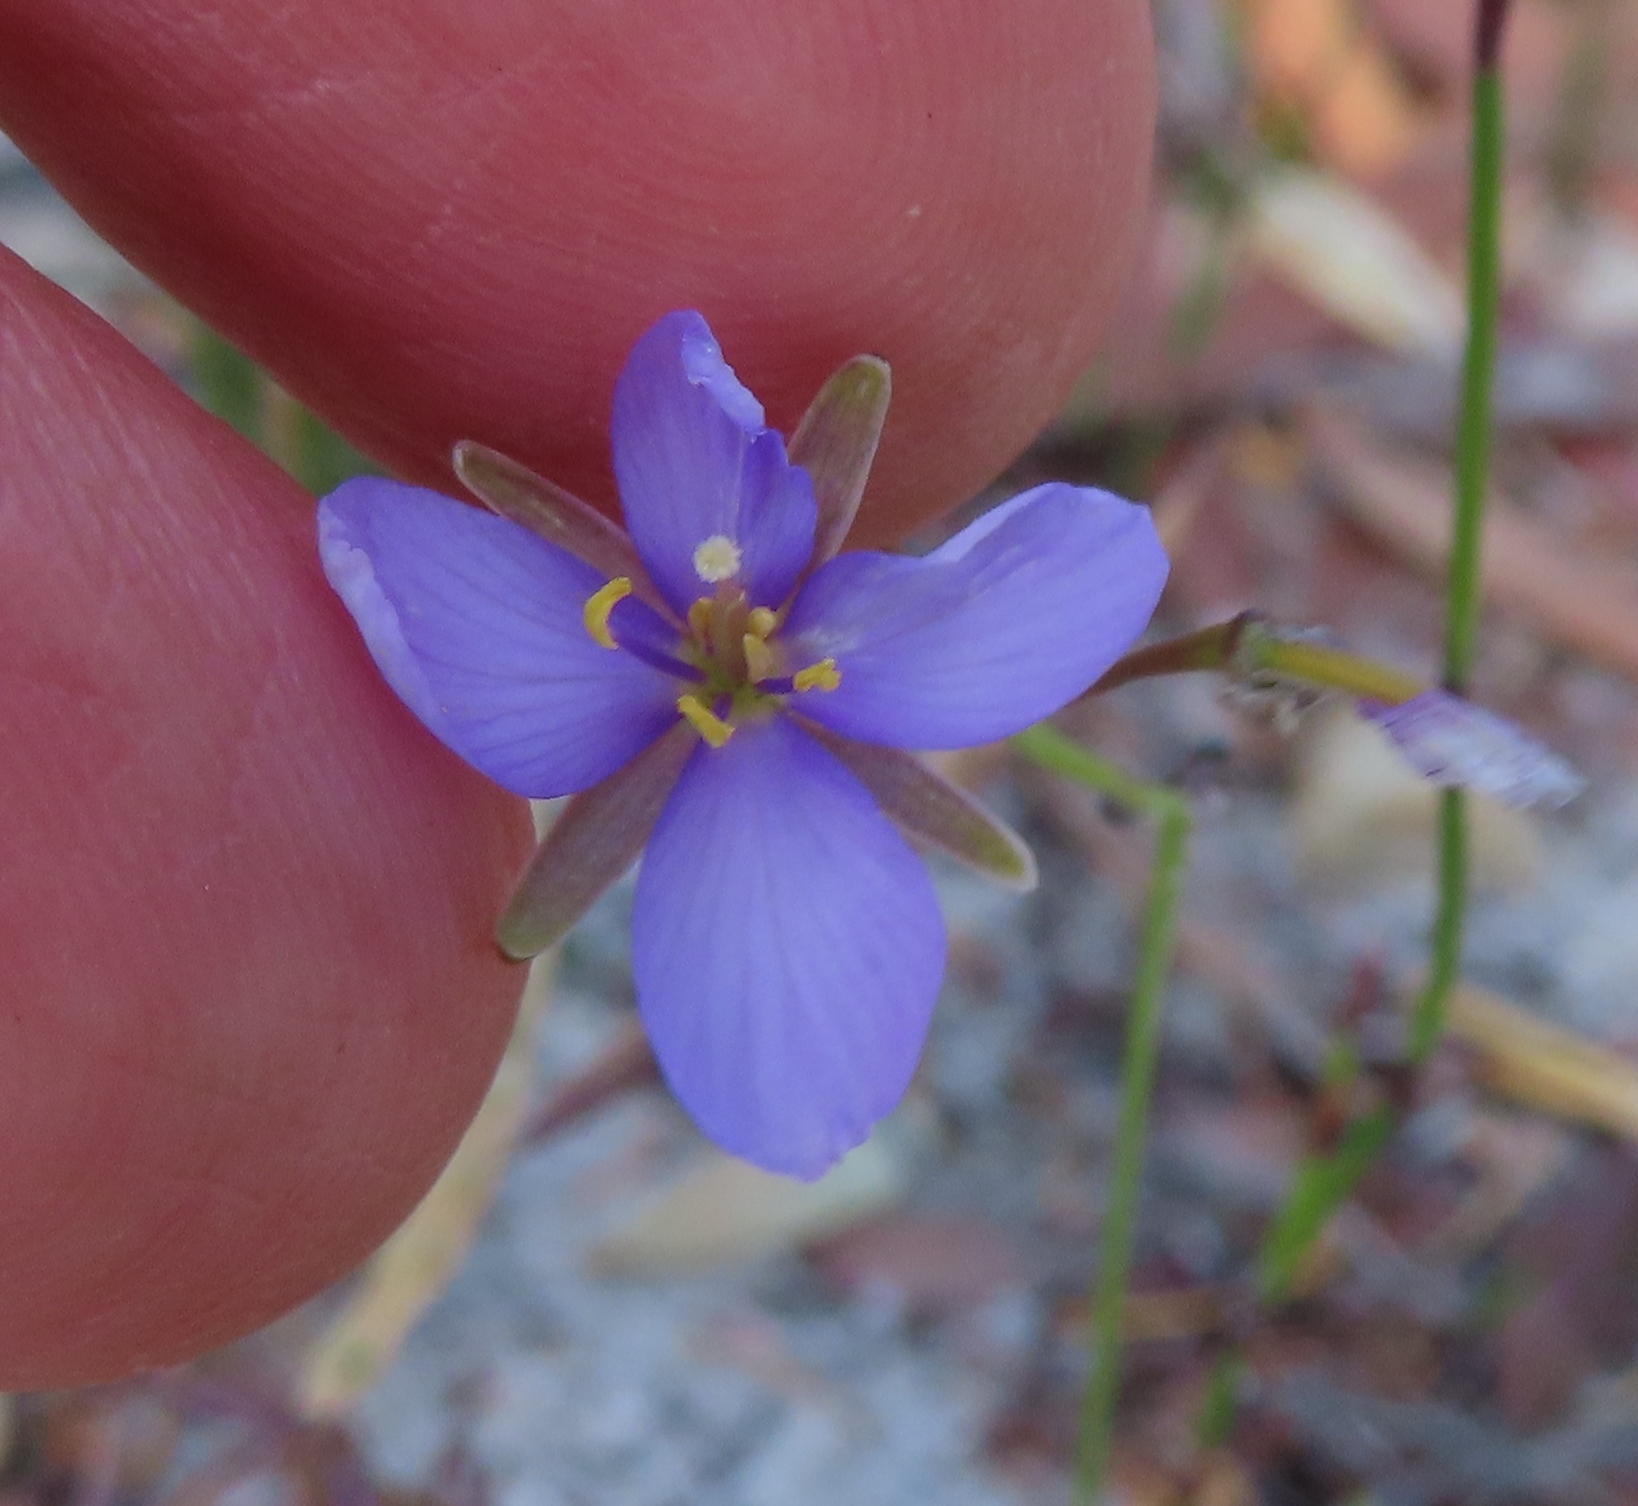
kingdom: Plantae
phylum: Tracheophyta
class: Magnoliopsida
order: Brassicales
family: Brassicaceae
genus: Heliophila
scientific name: Heliophila subulata
